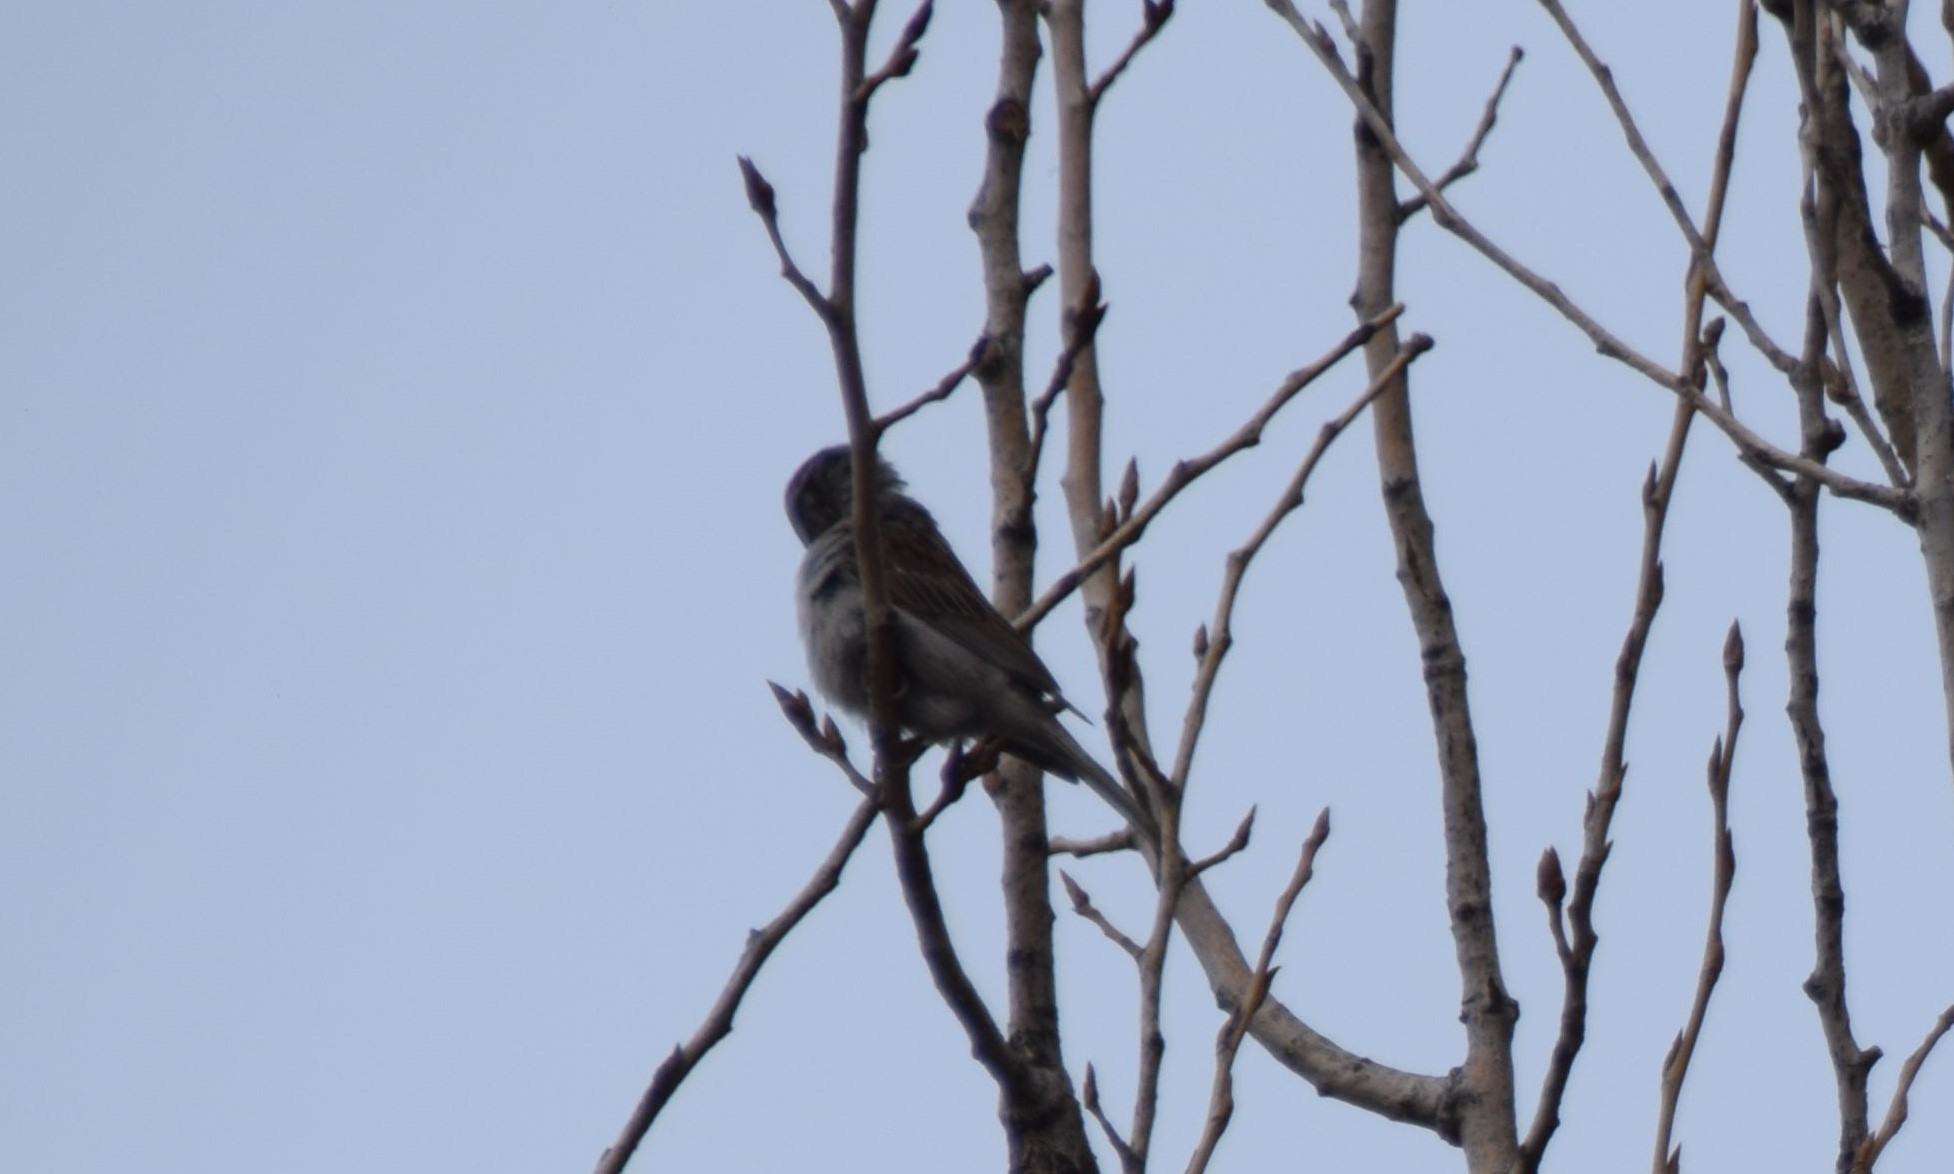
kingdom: Animalia
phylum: Chordata
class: Aves
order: Passeriformes
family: Passerellidae
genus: Spizella
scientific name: Spizella passerina
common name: Chipping sparrow
